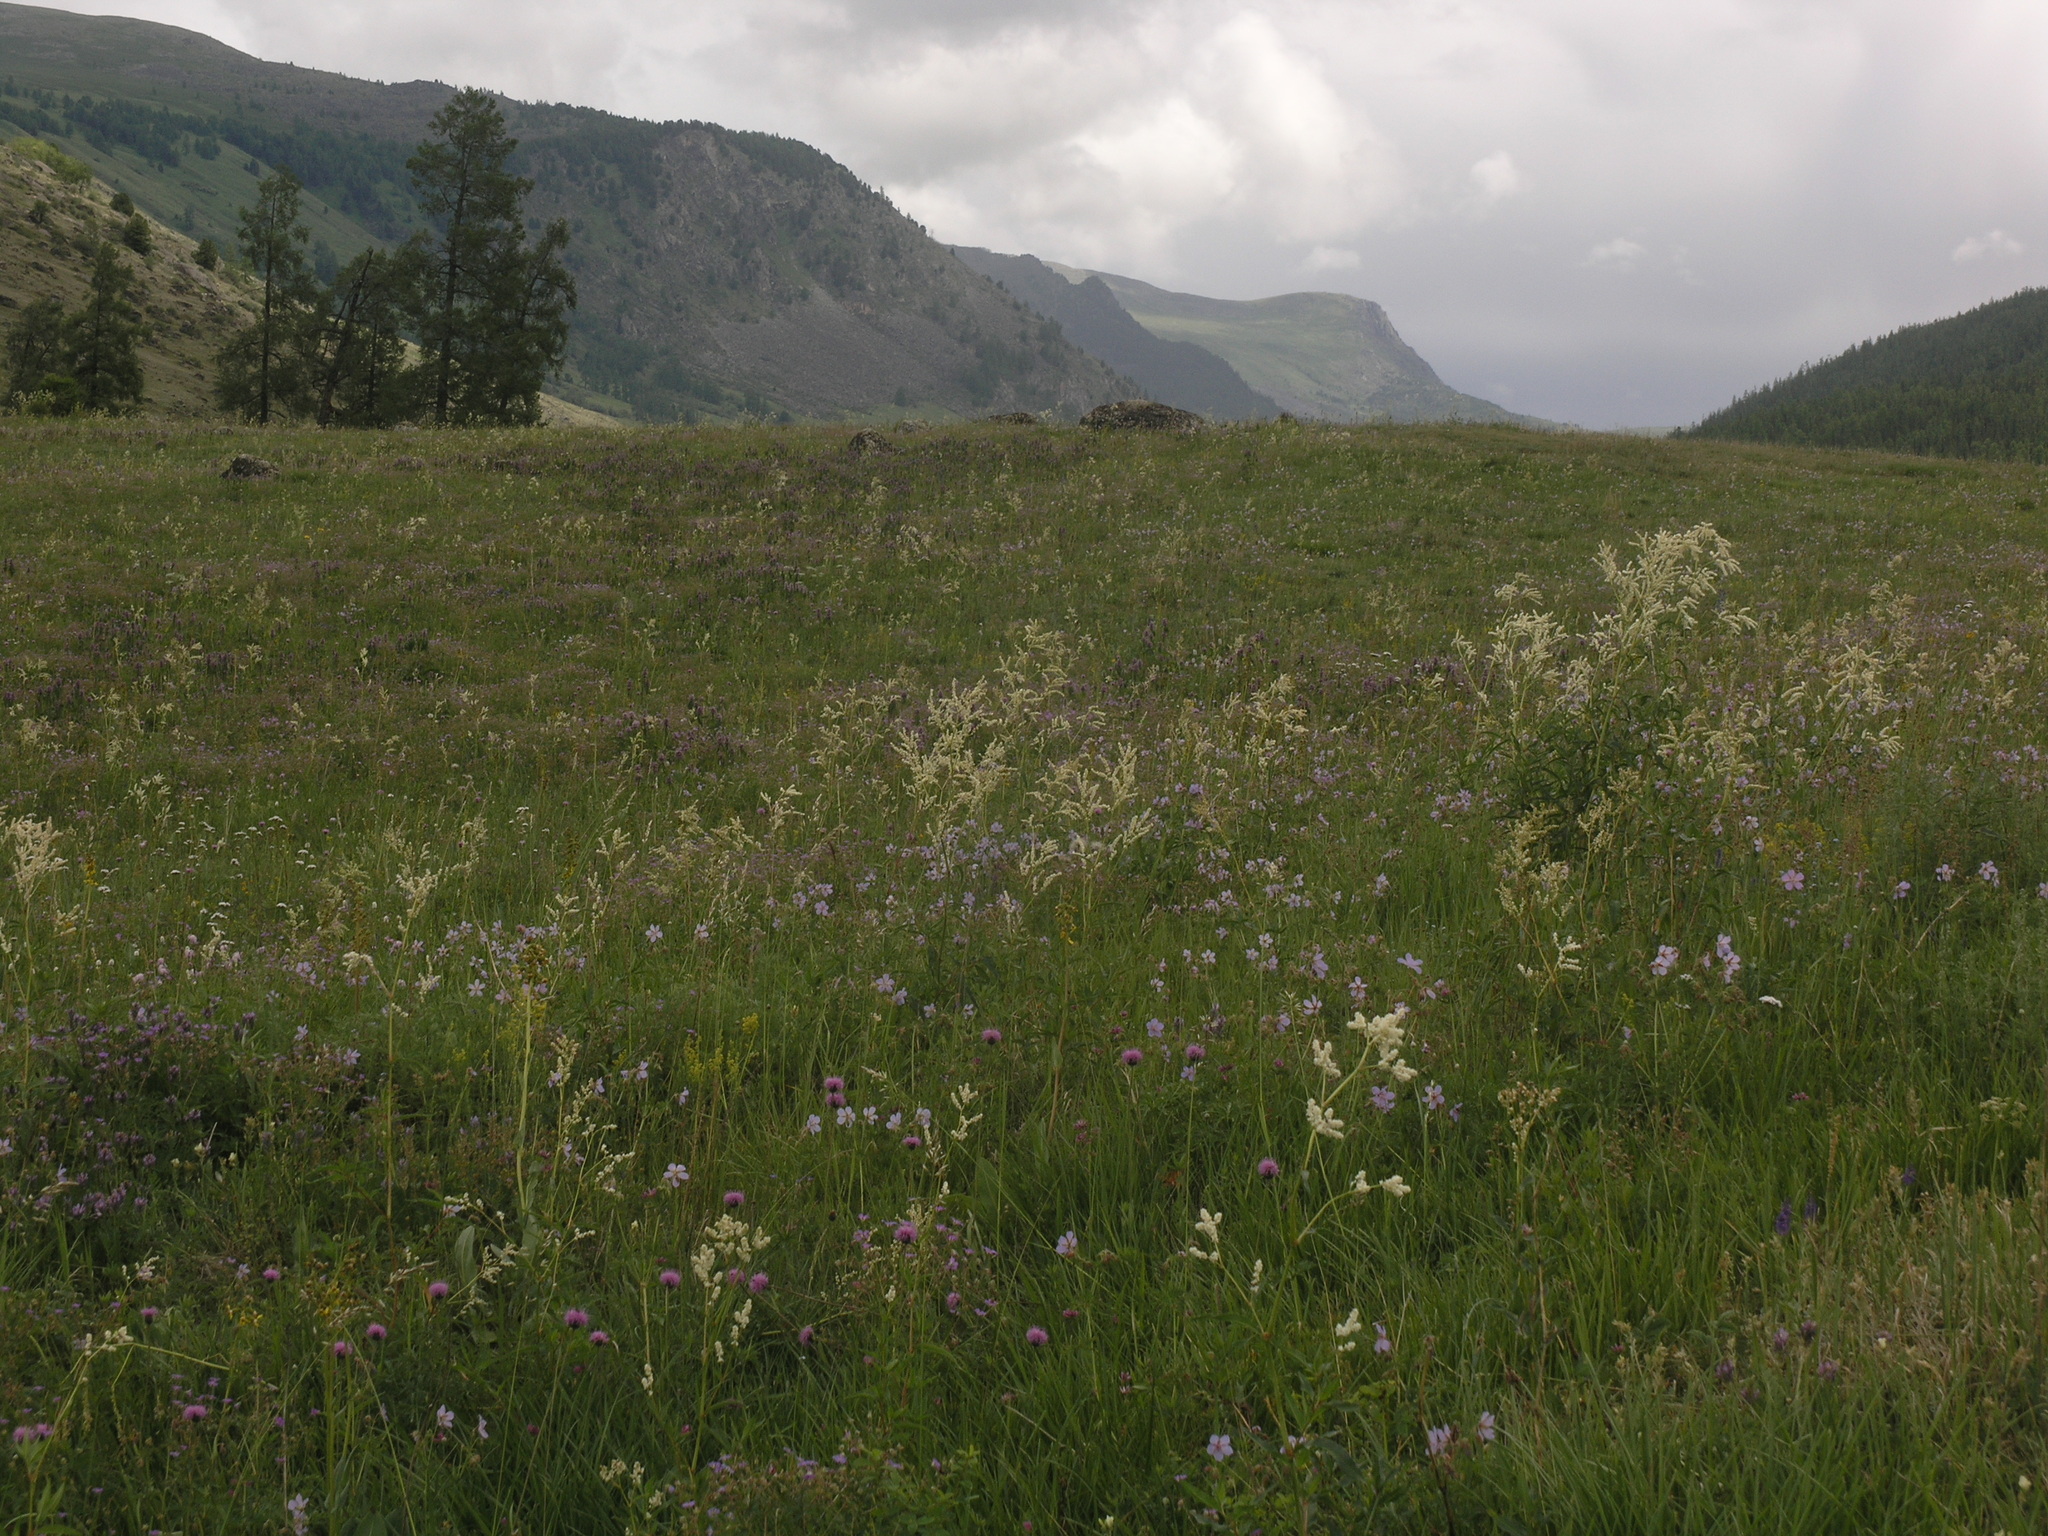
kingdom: Plantae
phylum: Tracheophyta
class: Pinopsida
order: Pinales
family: Pinaceae
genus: Larix
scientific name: Larix sibirica
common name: Siberian larch
